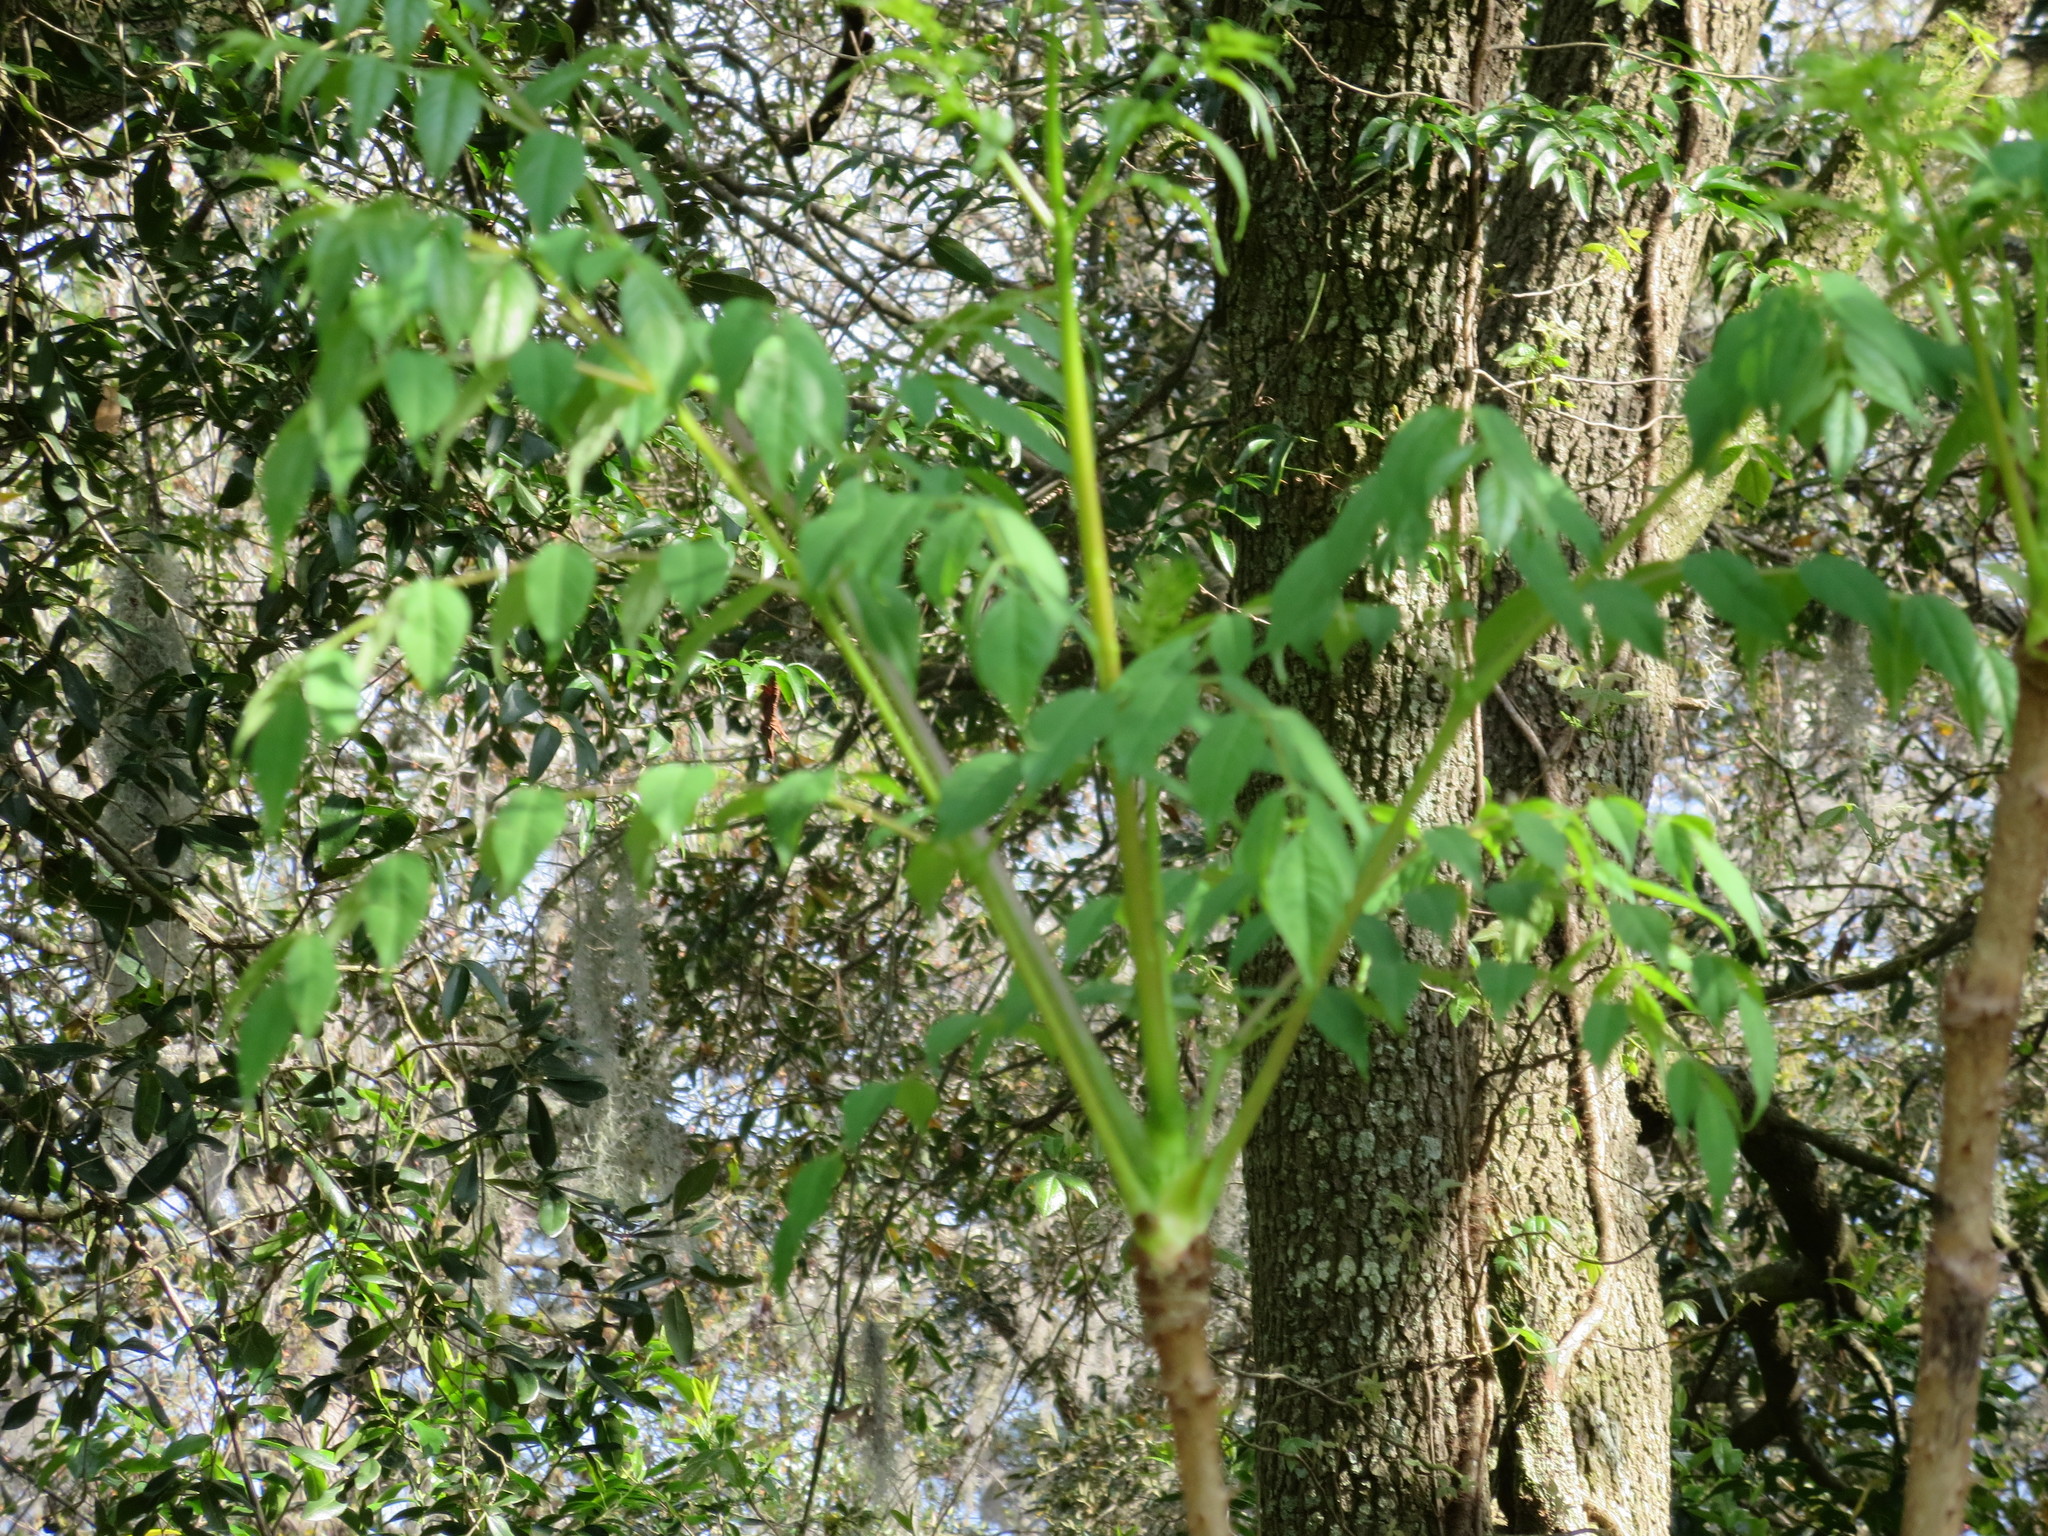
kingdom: Plantae
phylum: Tracheophyta
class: Magnoliopsida
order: Apiales
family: Araliaceae
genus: Aralia
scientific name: Aralia spinosa
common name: Hercules'-club
